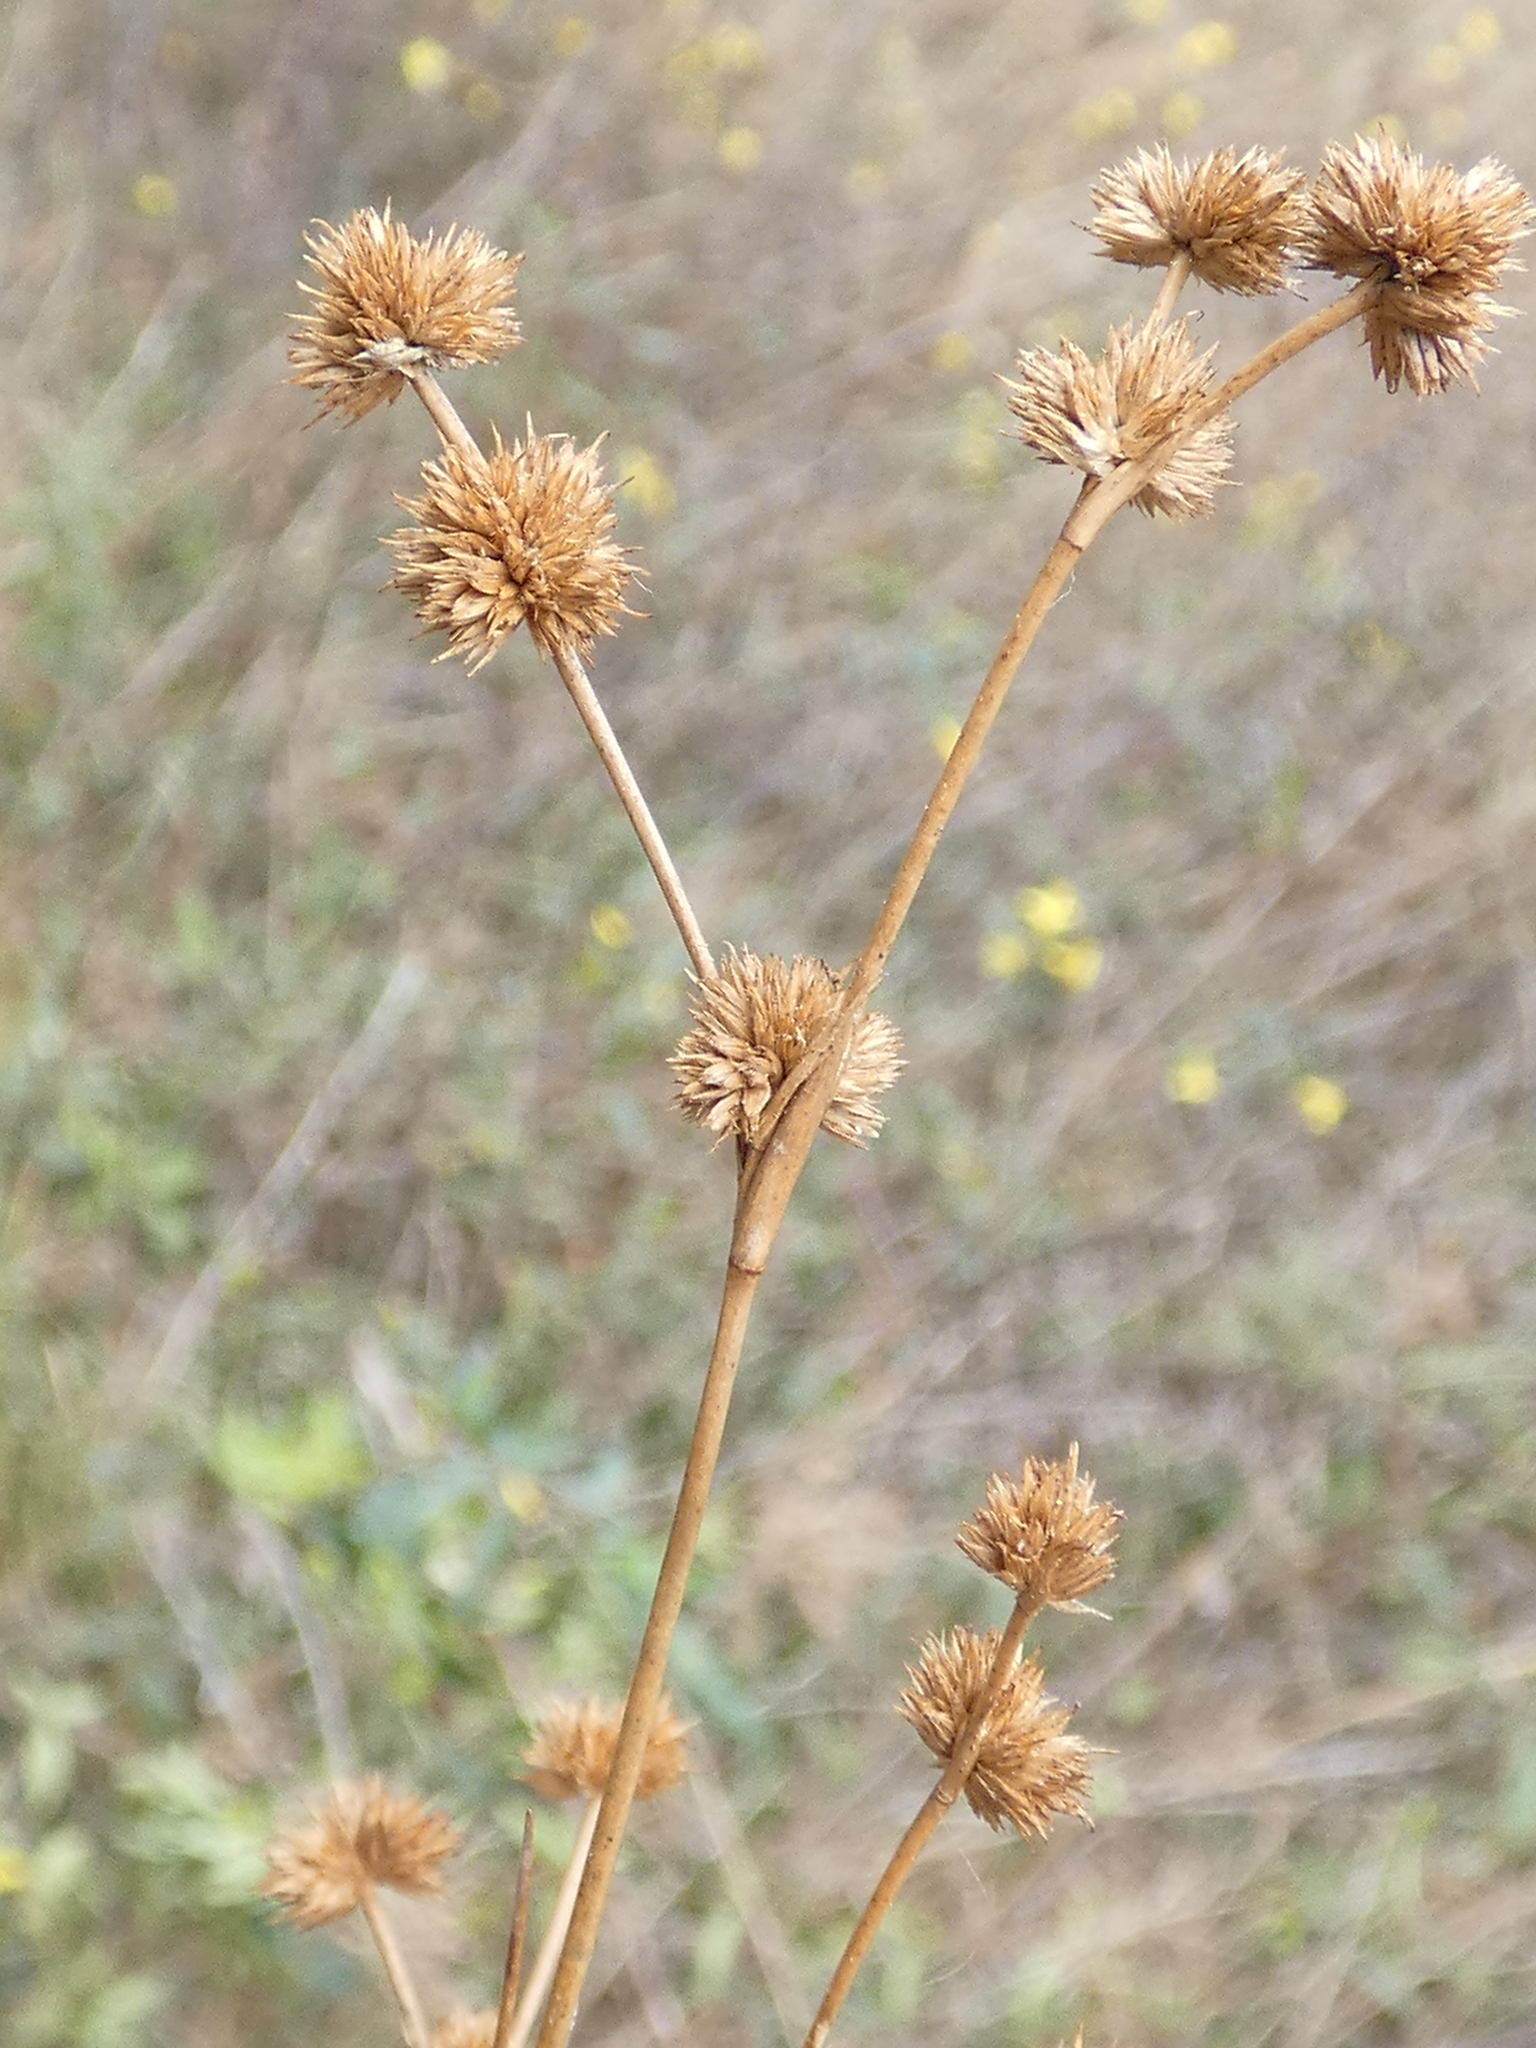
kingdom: Plantae
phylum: Tracheophyta
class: Liliopsida
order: Poales
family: Juncaceae
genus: Juncus
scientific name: Juncus scirpoides
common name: Needlepod rush
